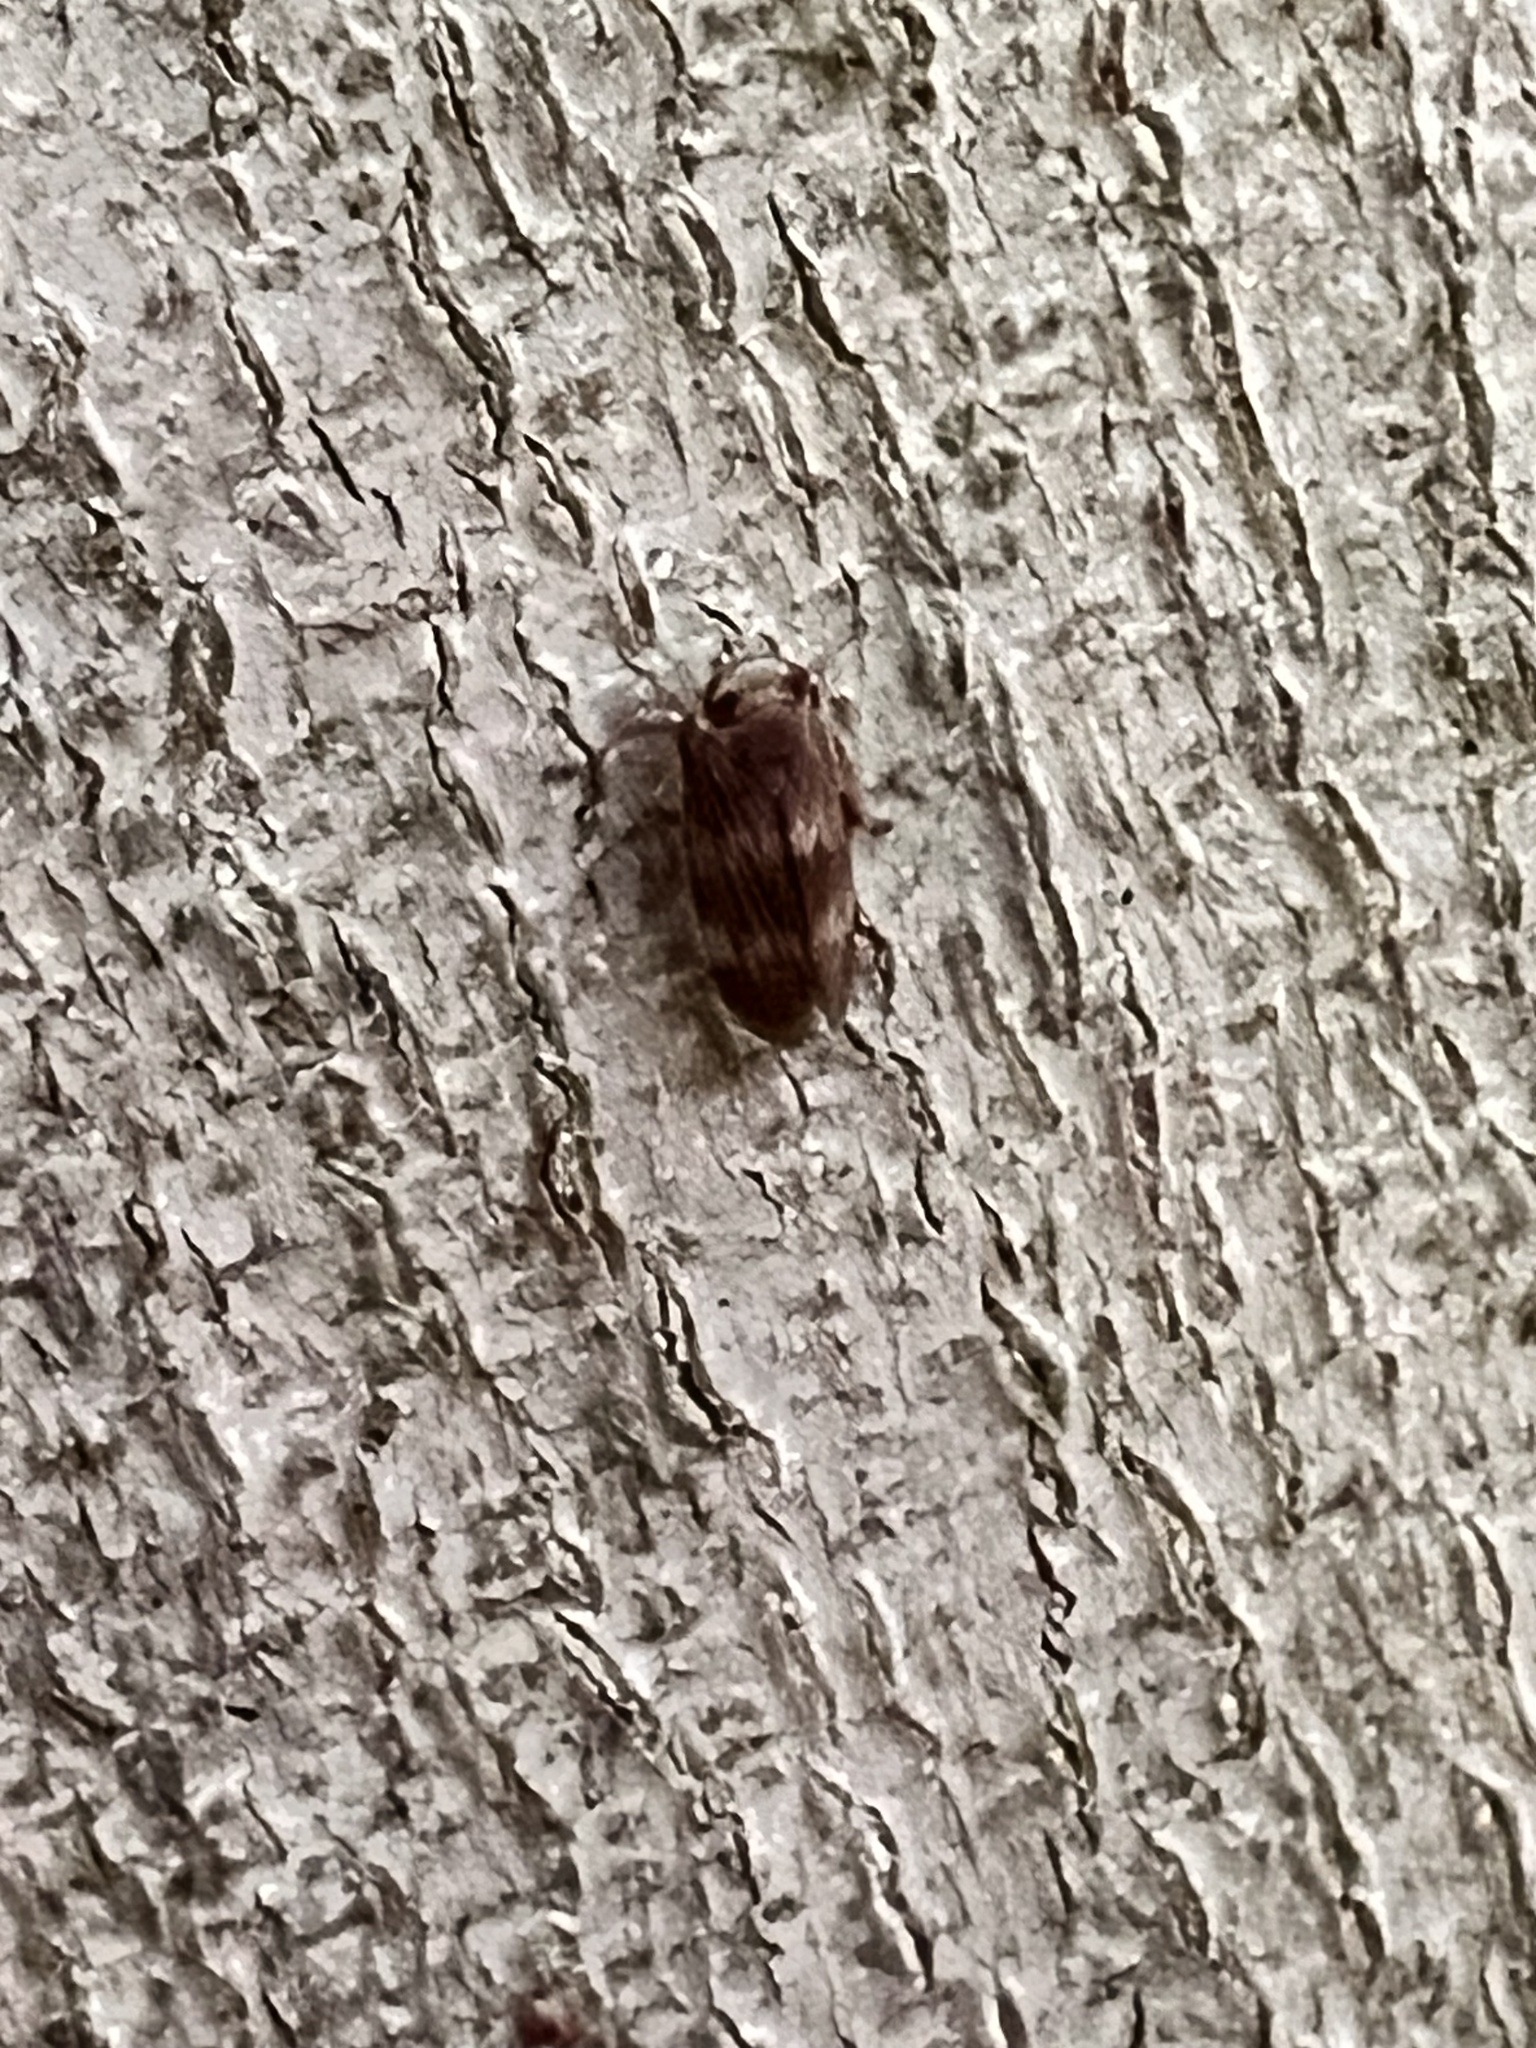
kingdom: Animalia
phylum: Arthropoda
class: Insecta
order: Hemiptera
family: Cicadellidae
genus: Jikradia
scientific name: Jikradia olitoria
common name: Coppery leafhopper
